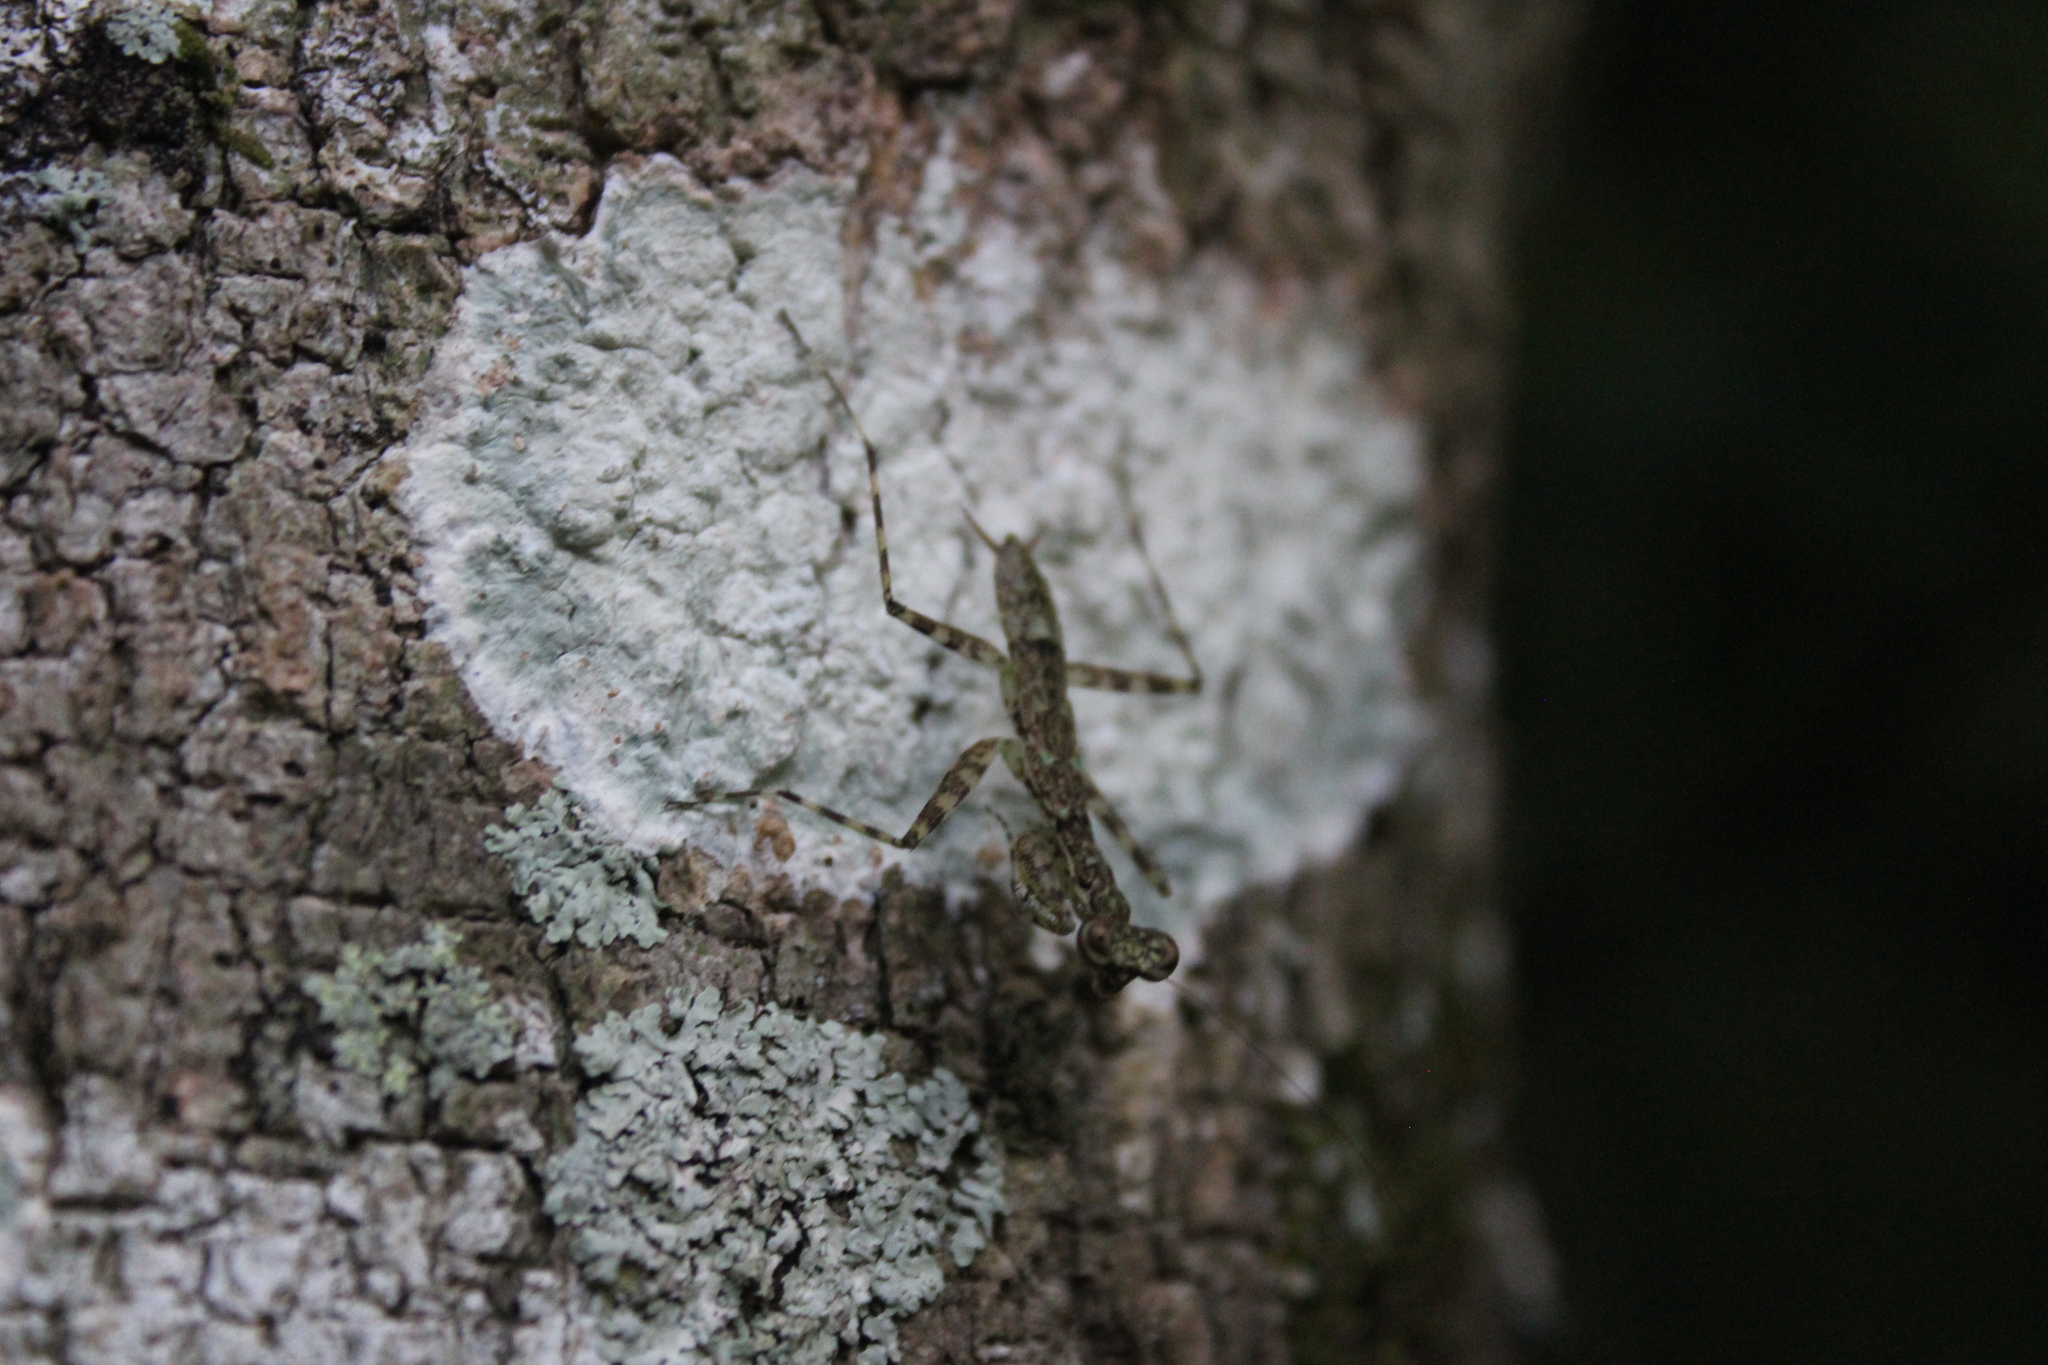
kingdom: Animalia
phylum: Arthropoda
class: Insecta
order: Mantodea
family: Liturgusidae
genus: Liturgusa
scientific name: Liturgusa maya
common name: Mantis
